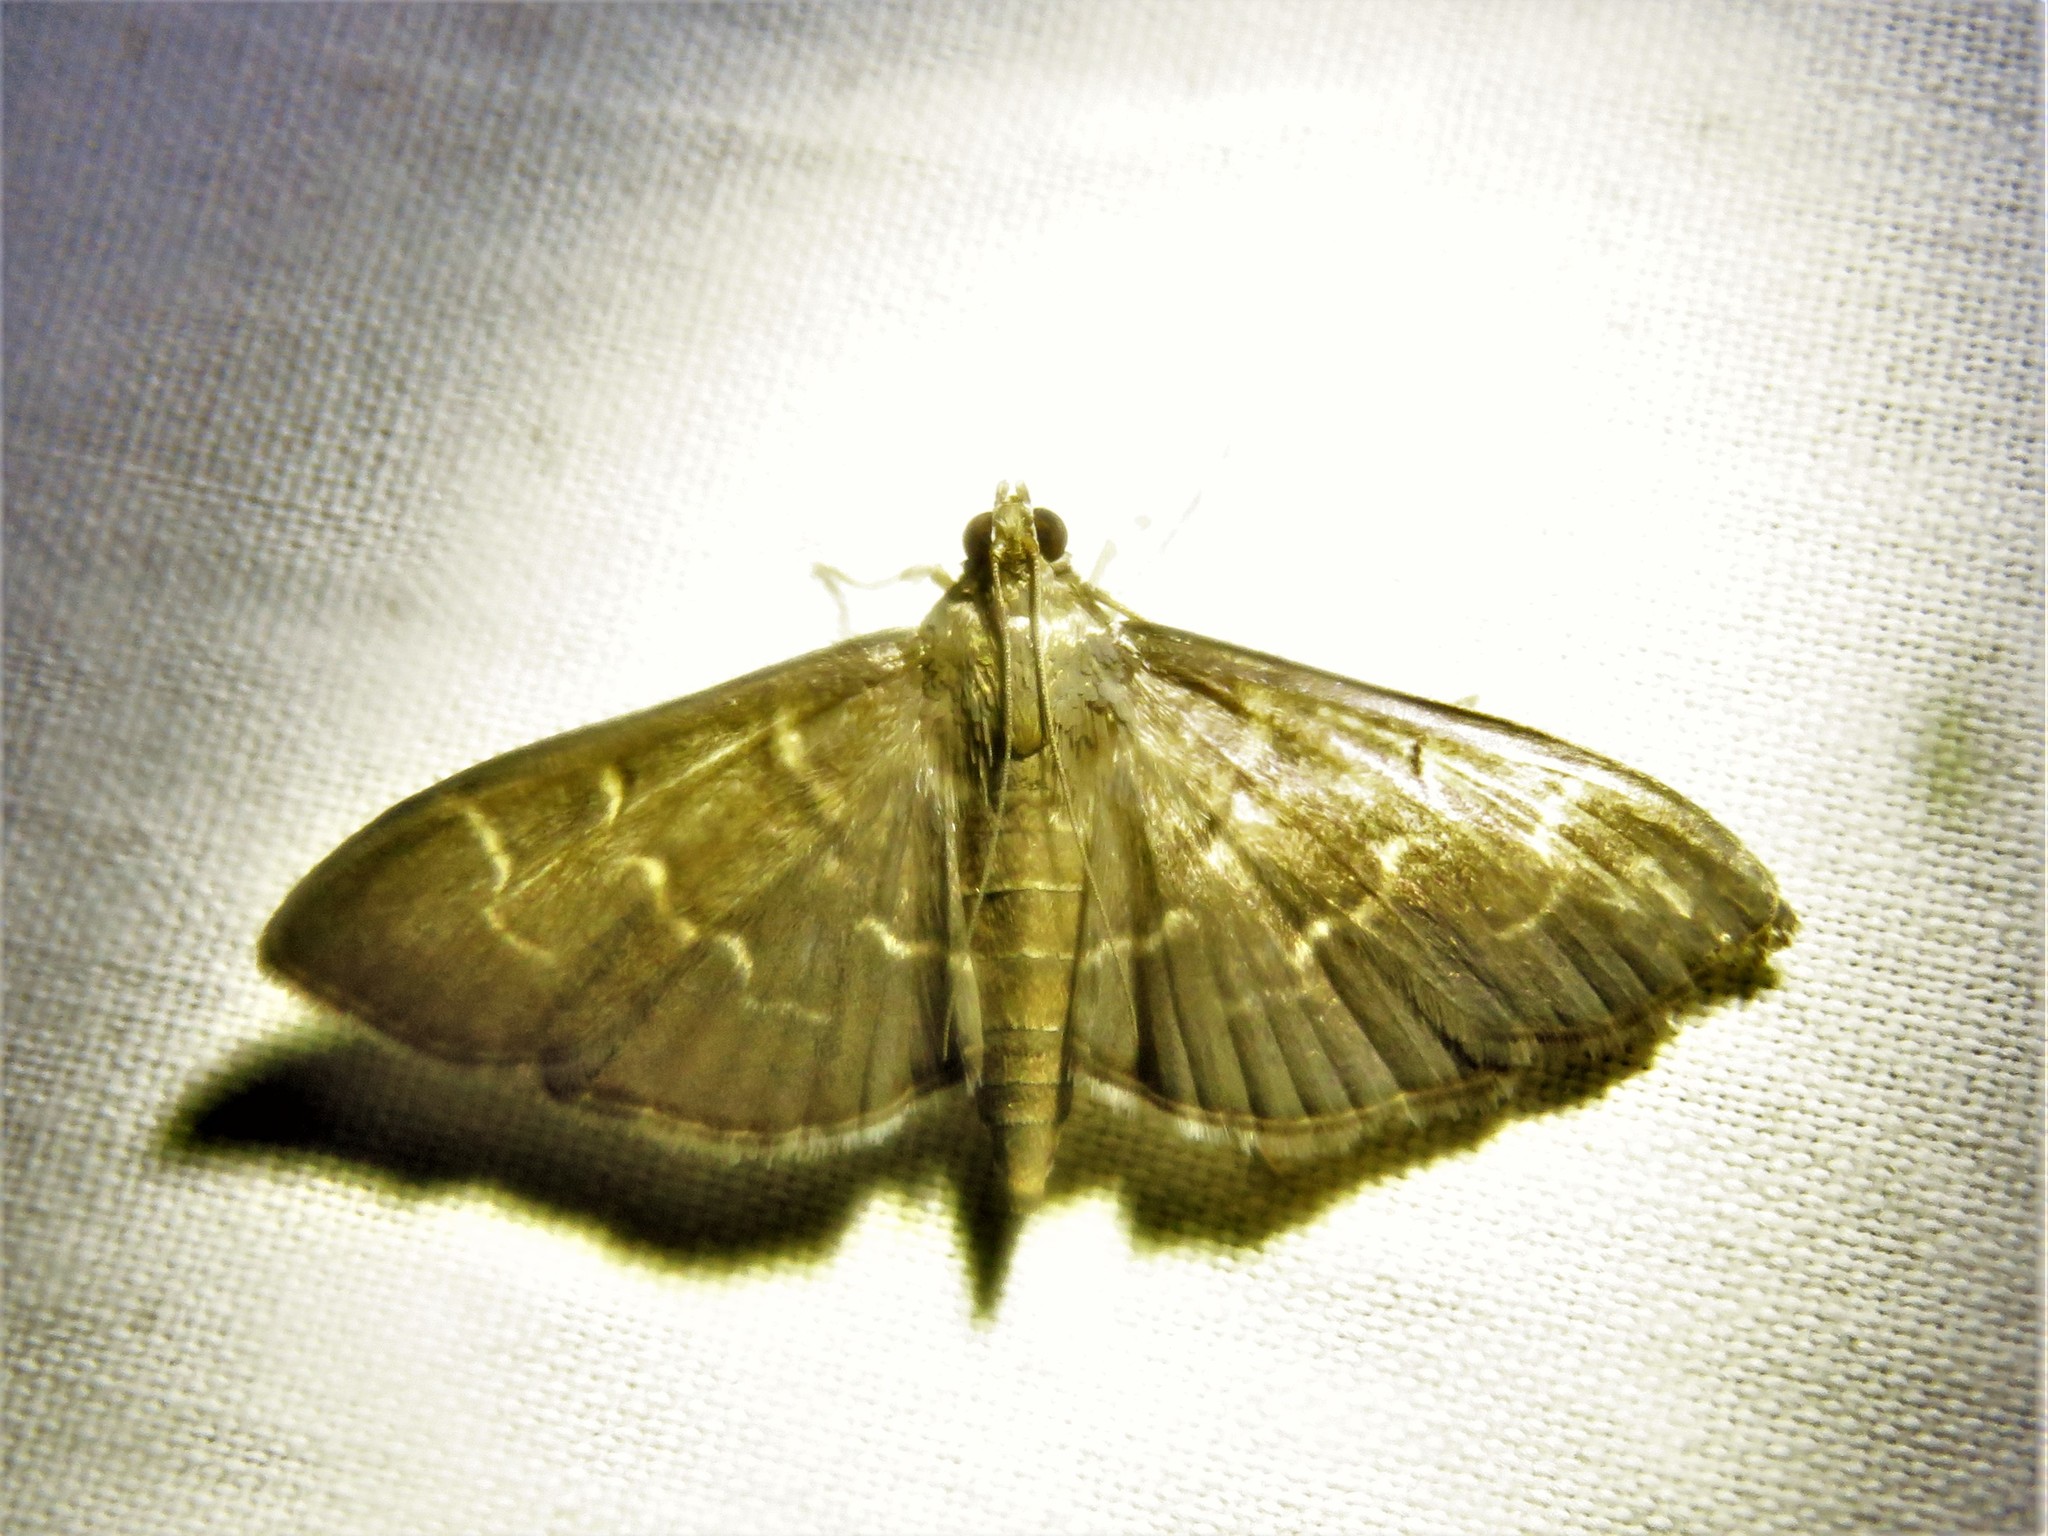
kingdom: Animalia
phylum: Arthropoda
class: Insecta
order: Lepidoptera
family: Crambidae
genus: Pilocrocis
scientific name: Pilocrocis ramentalis
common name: Scraped pilocrocis
